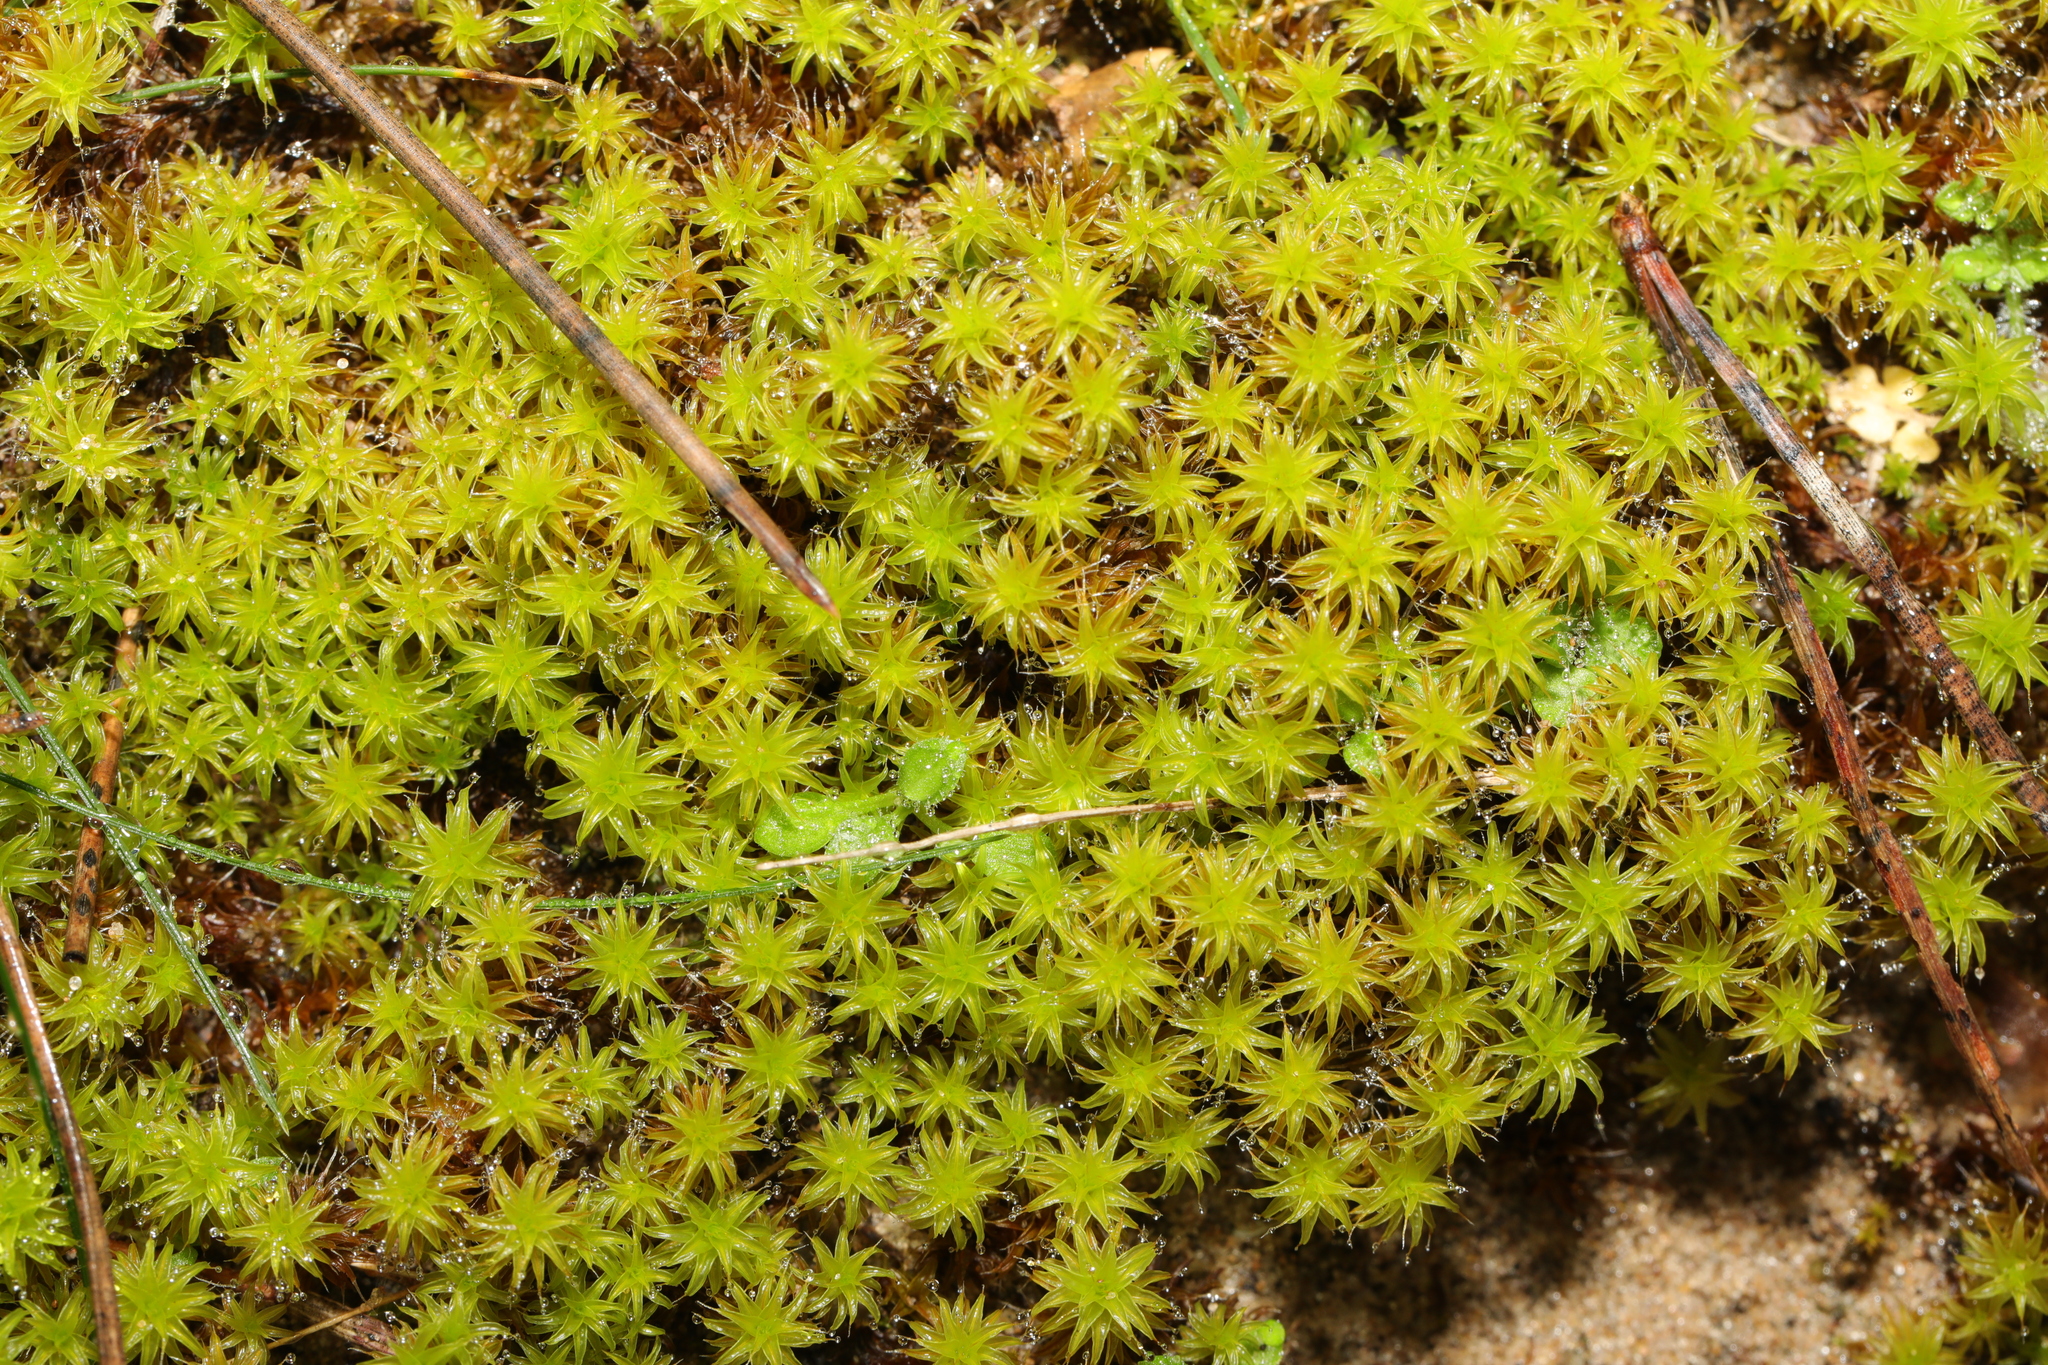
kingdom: Plantae
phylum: Bryophyta
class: Bryopsida
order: Pottiales
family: Pottiaceae
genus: Syntrichia
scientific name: Syntrichia ruralis
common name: Sidewalk screw moss
